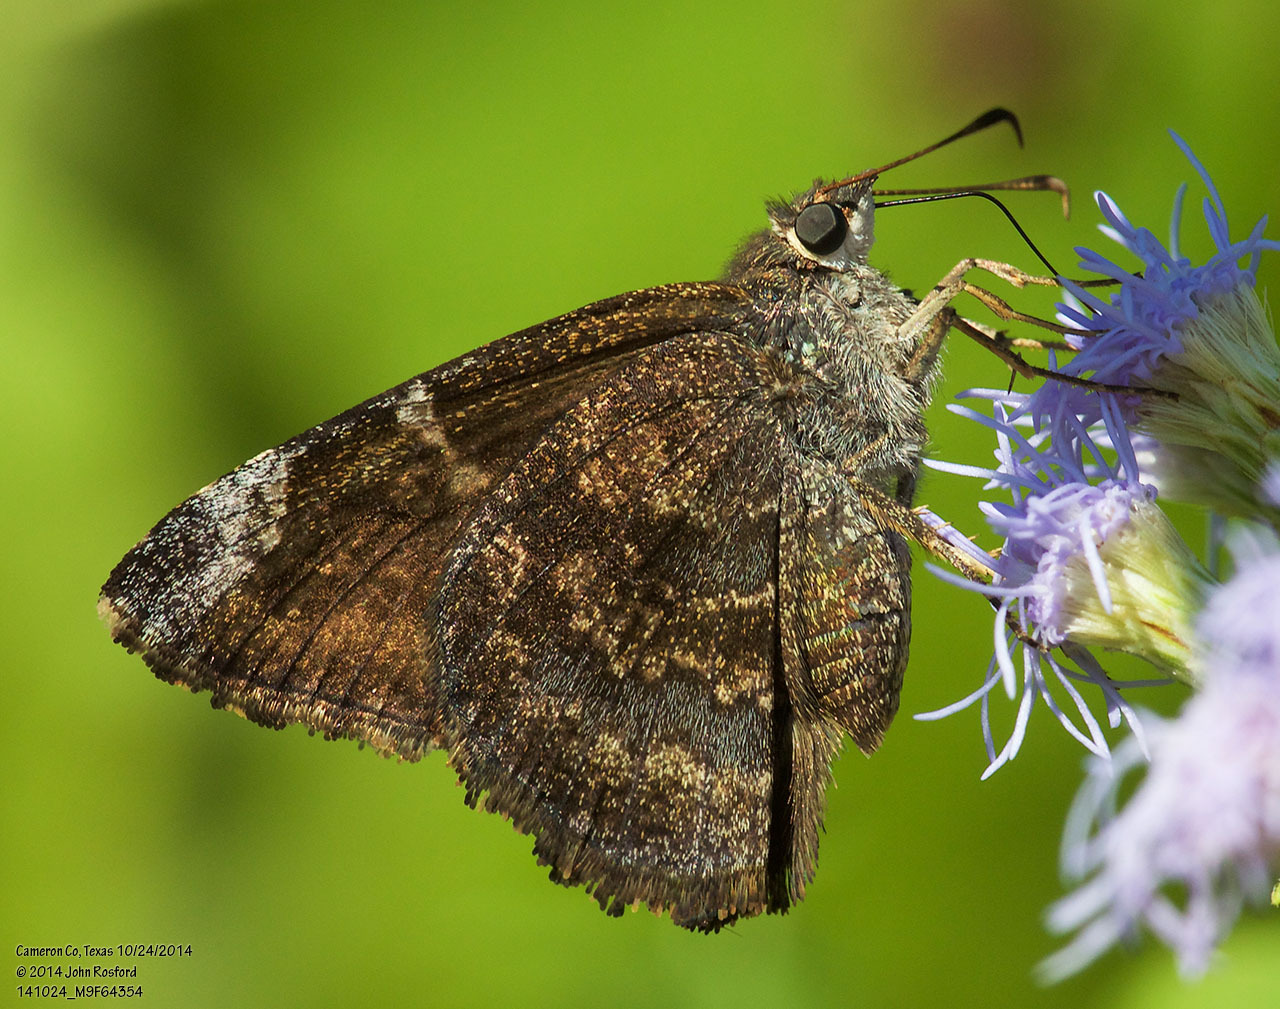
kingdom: Animalia
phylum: Arthropoda
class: Insecta
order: Lepidoptera
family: Hesperiidae
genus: Caicella
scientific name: Caicella calchas
